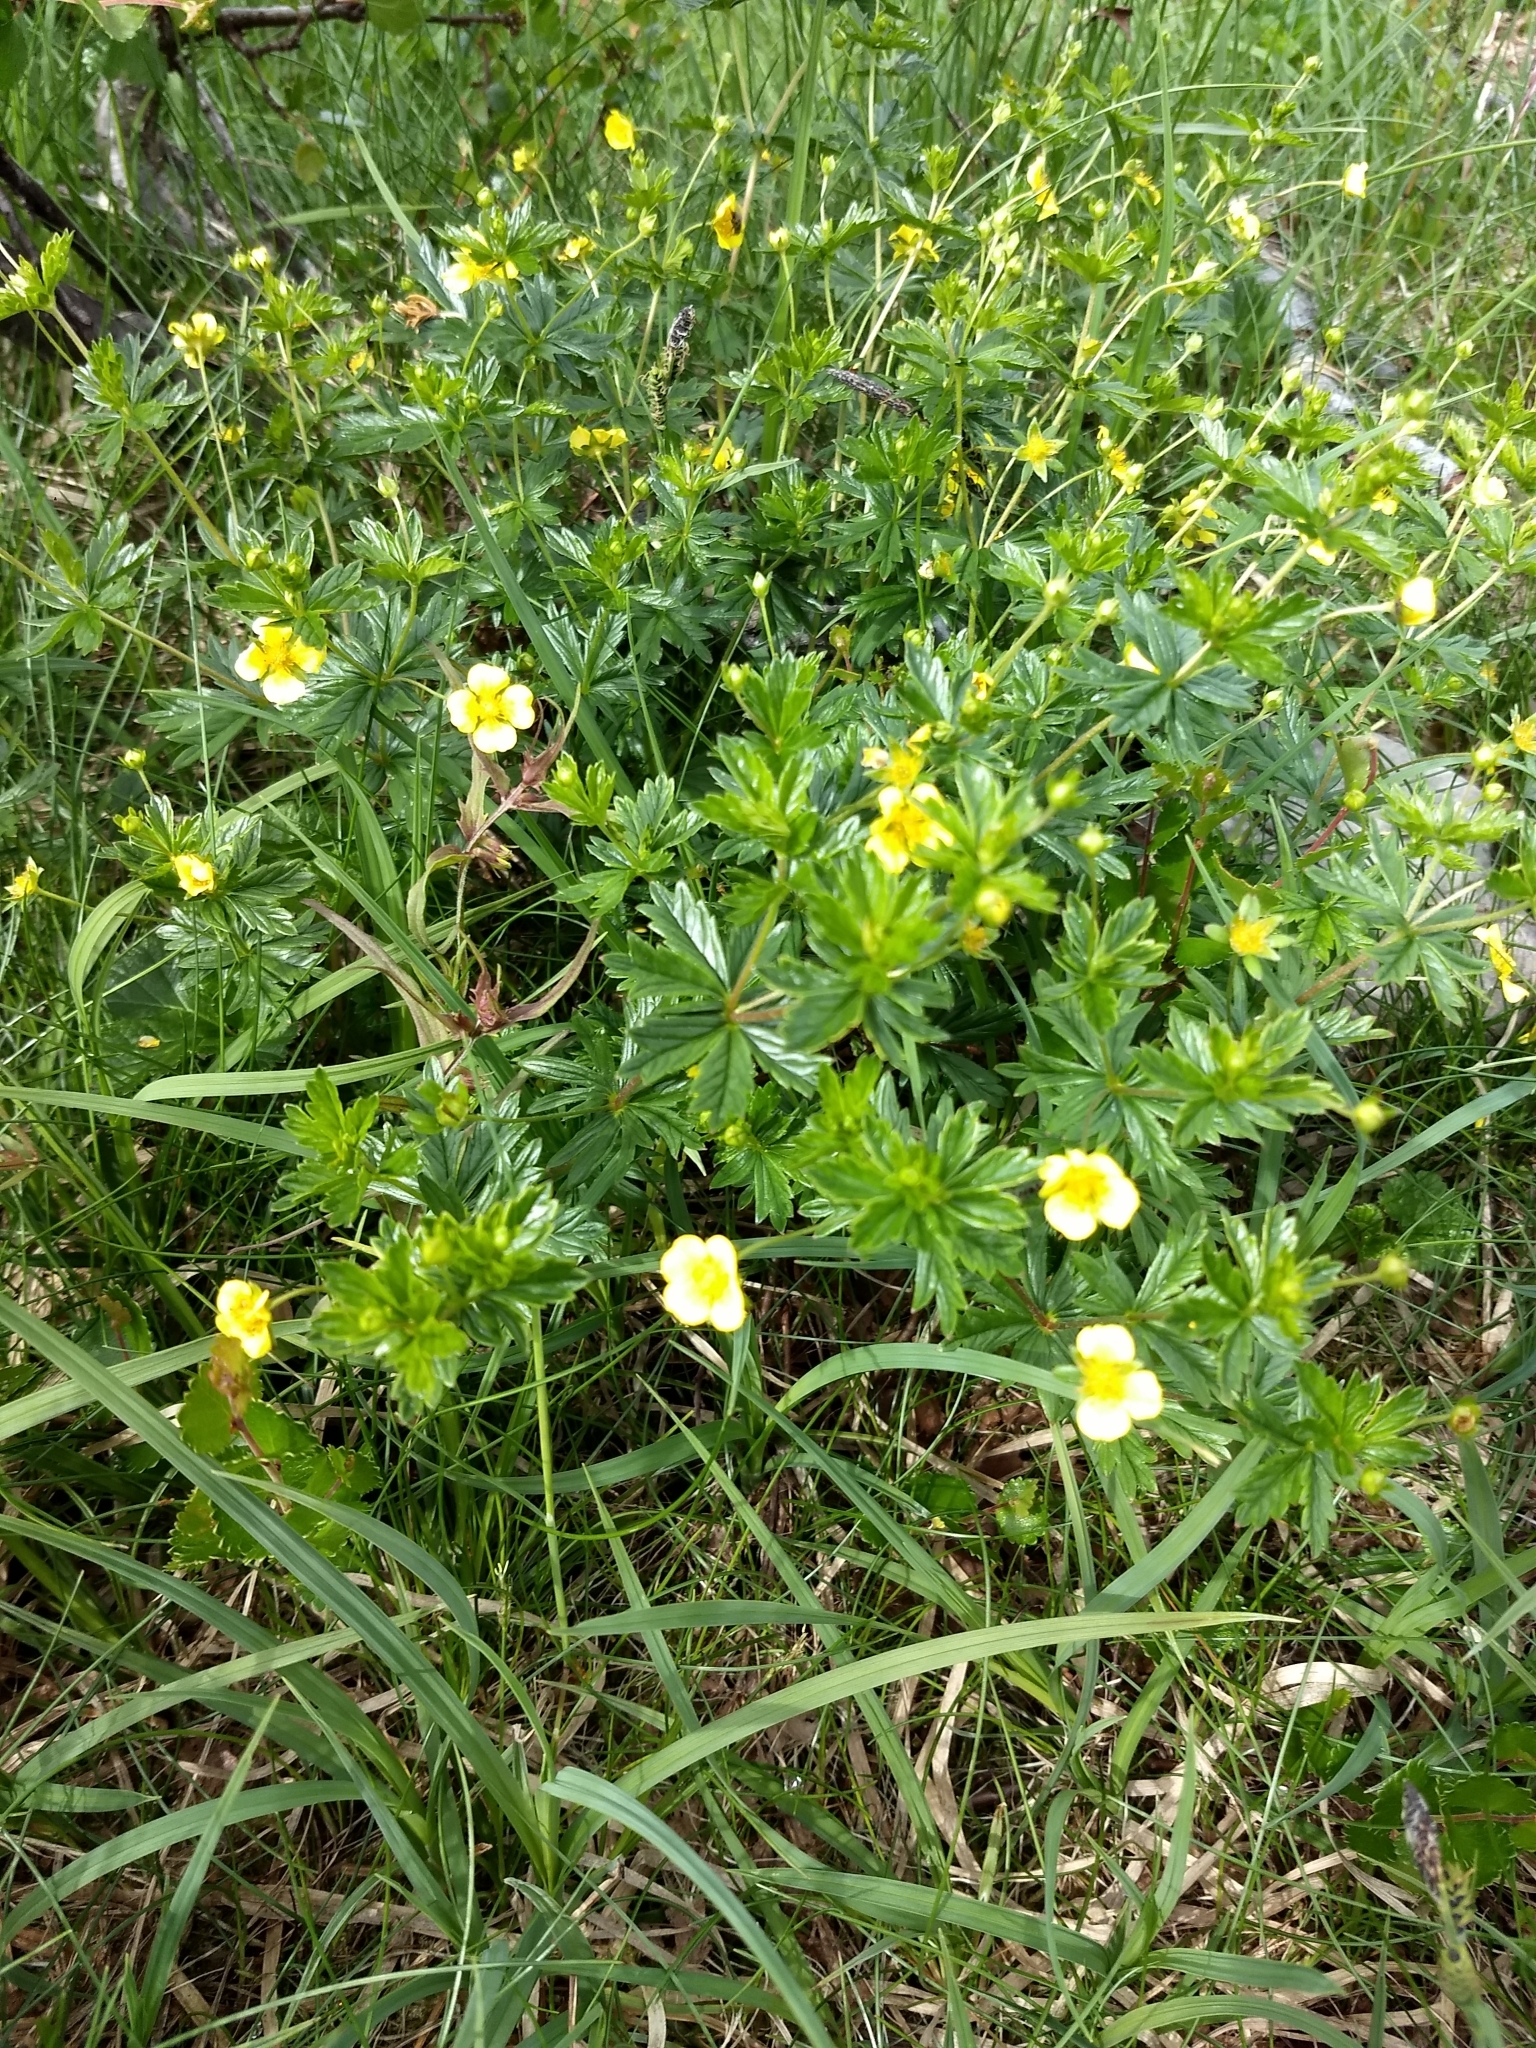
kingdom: Plantae
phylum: Tracheophyta
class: Magnoliopsida
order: Rosales
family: Rosaceae
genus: Potentilla
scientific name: Potentilla erecta
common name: Tormentil
